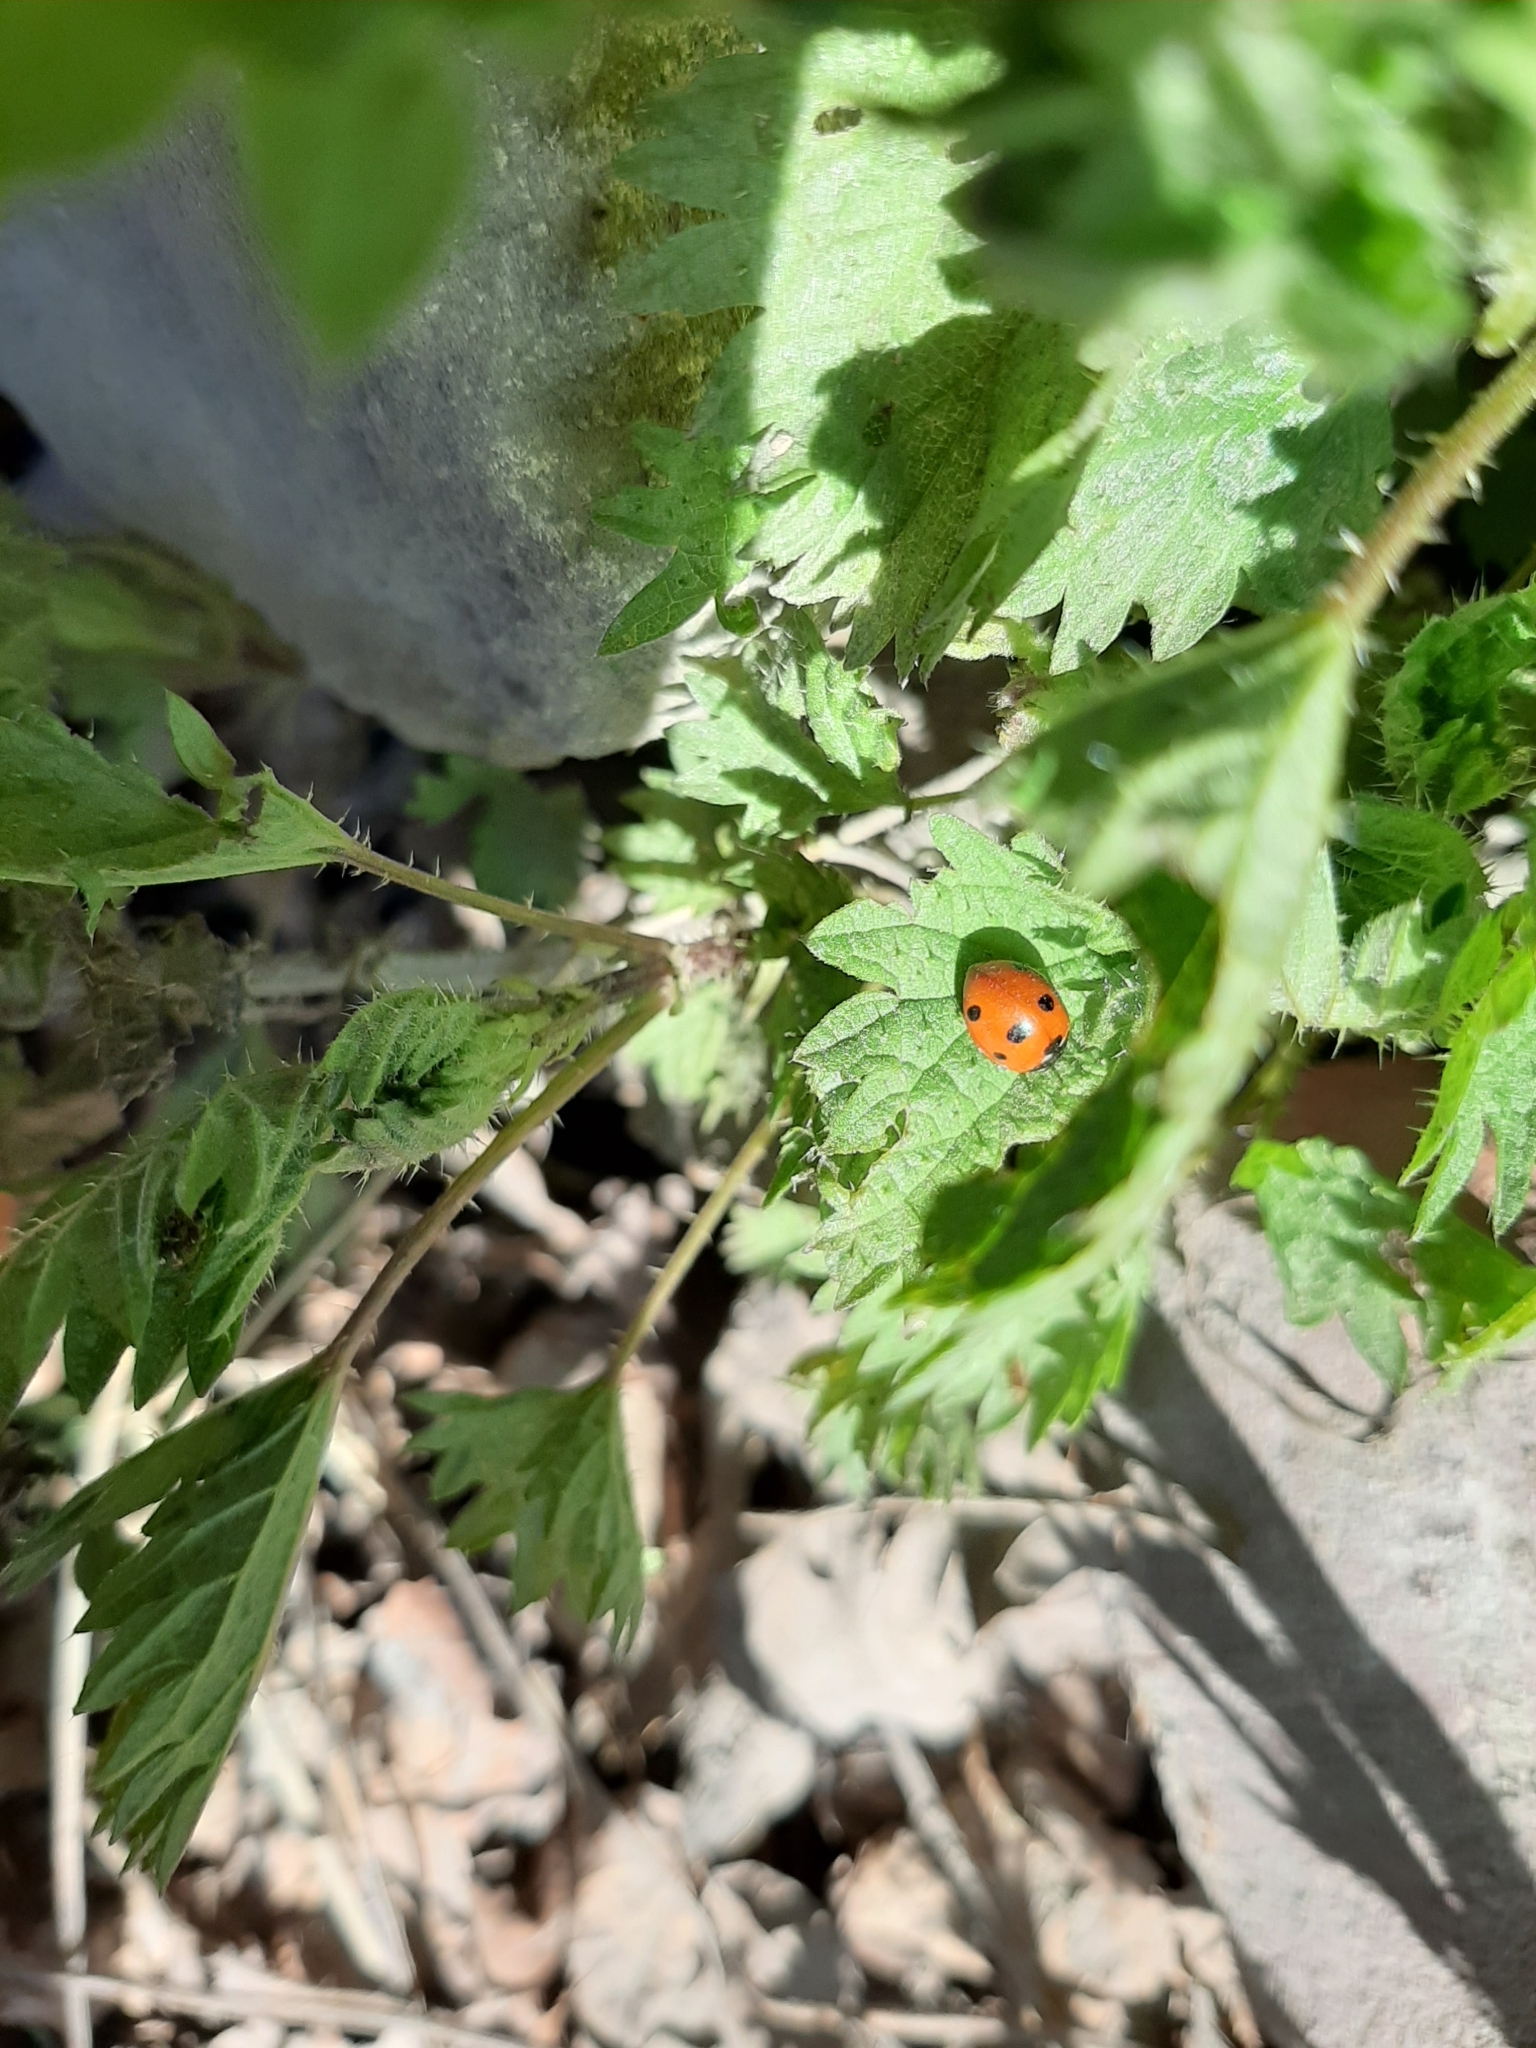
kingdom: Animalia
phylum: Arthropoda
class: Insecta
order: Coleoptera
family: Coccinellidae
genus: Coccinella
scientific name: Coccinella septempunctata
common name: Sevenspotted lady beetle
